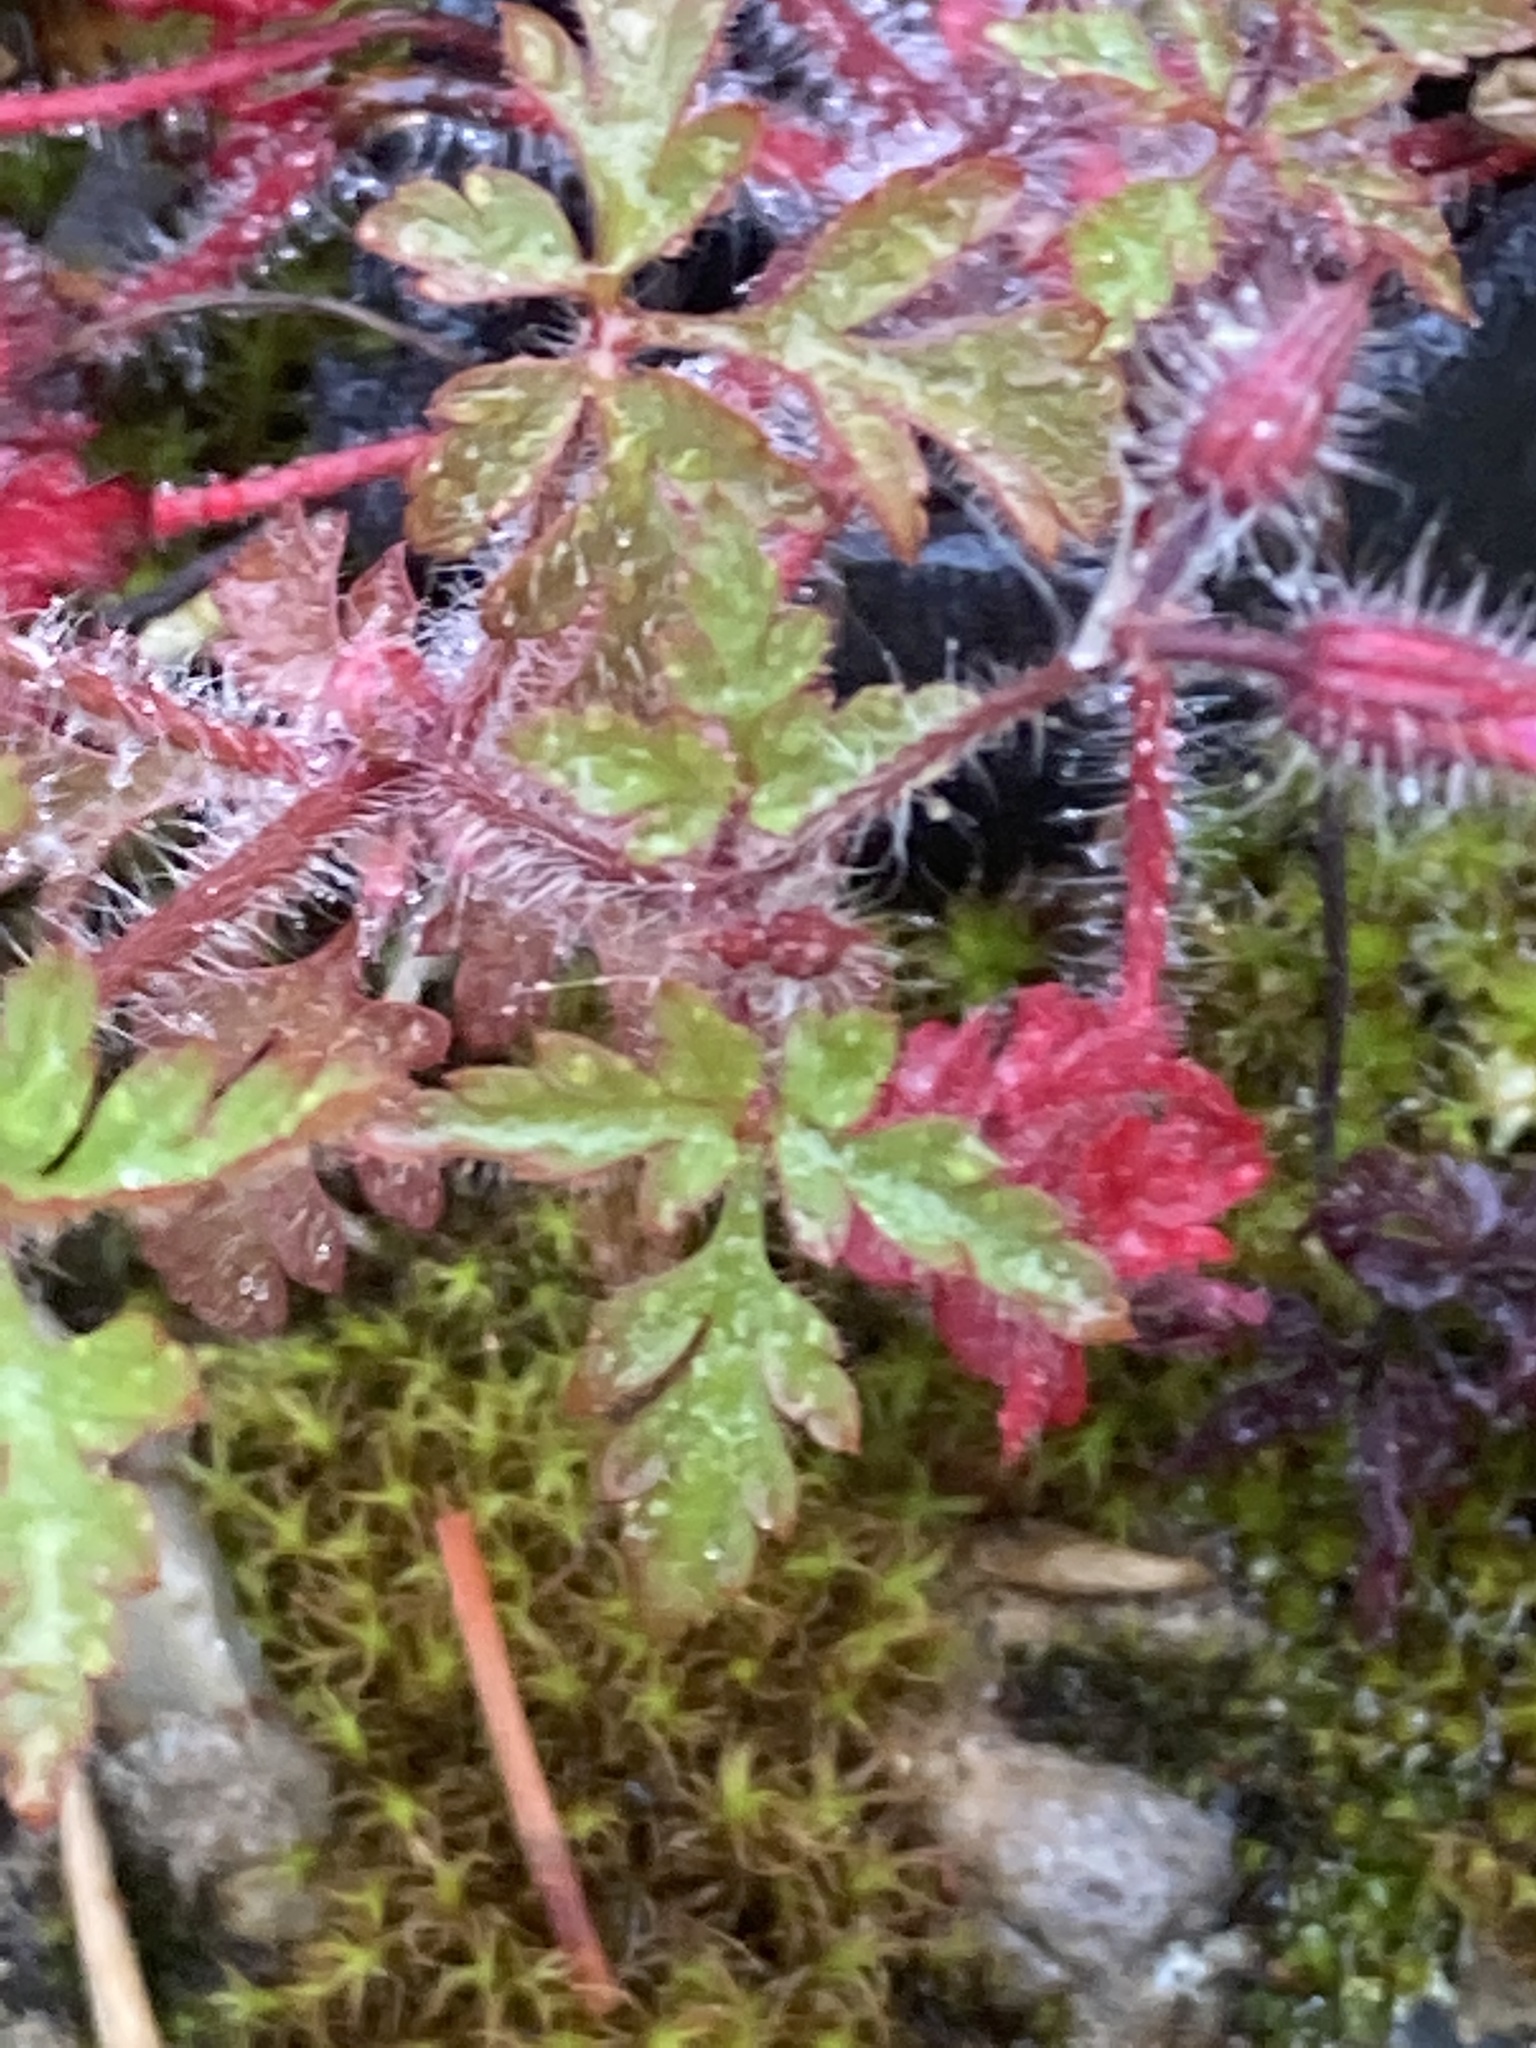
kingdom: Plantae
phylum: Tracheophyta
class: Magnoliopsida
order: Geraniales
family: Geraniaceae
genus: Geranium
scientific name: Geranium robertianum
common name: Herb-robert
